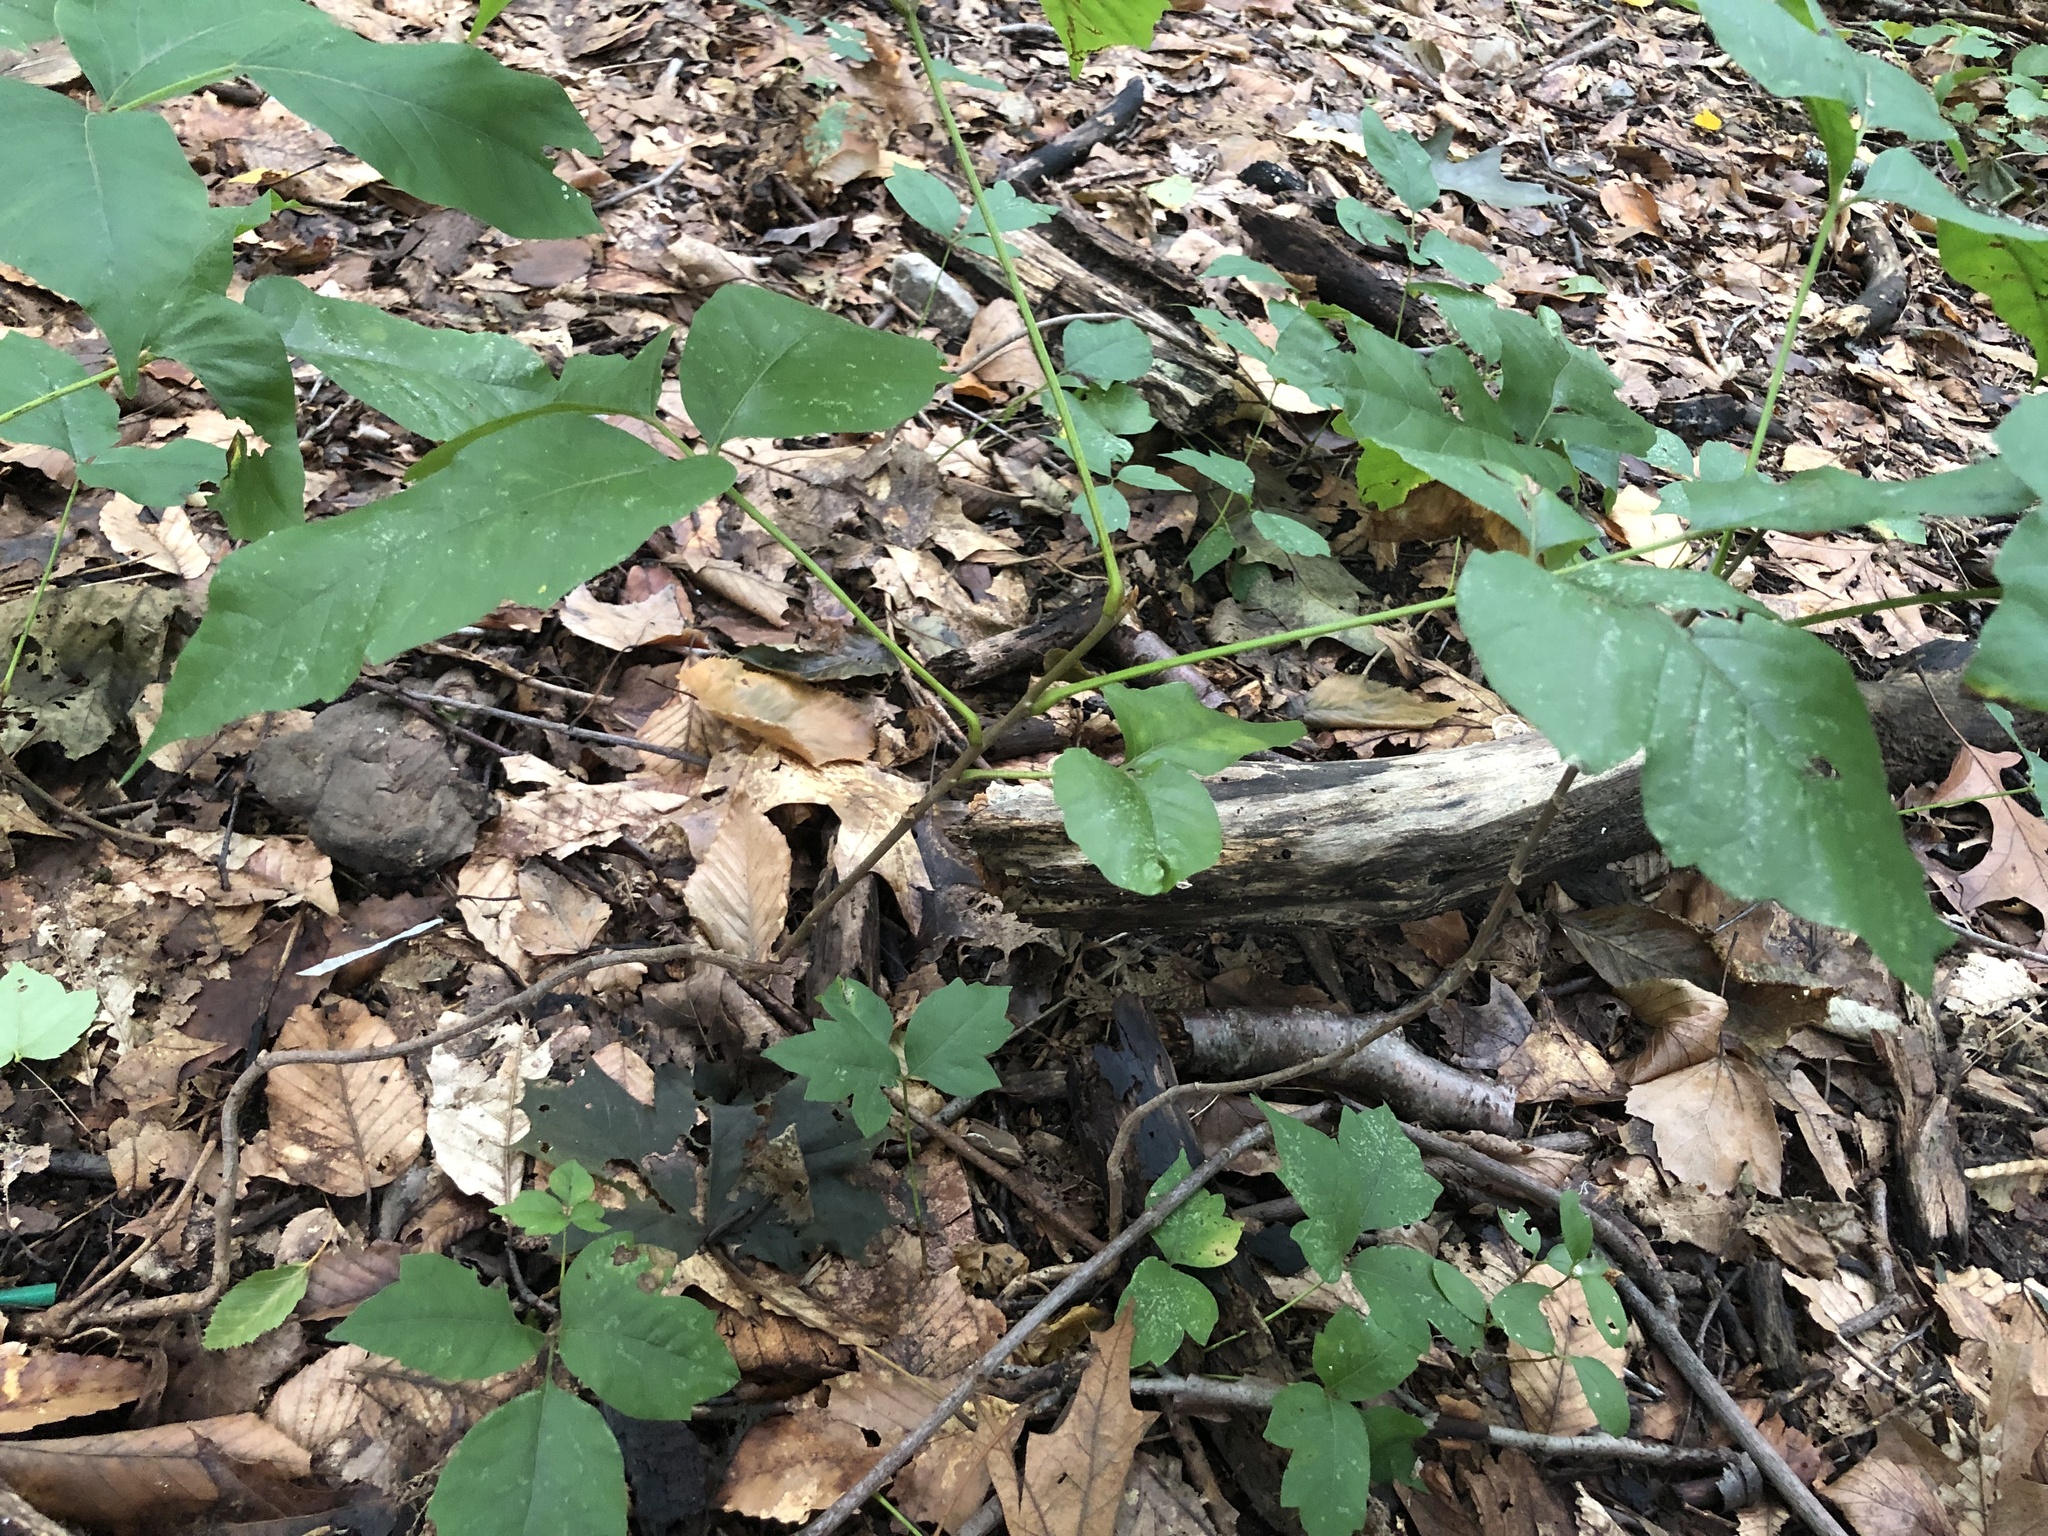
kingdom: Plantae
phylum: Tracheophyta
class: Magnoliopsida
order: Sapindales
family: Anacardiaceae
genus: Toxicodendron
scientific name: Toxicodendron radicans
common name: Poison ivy
